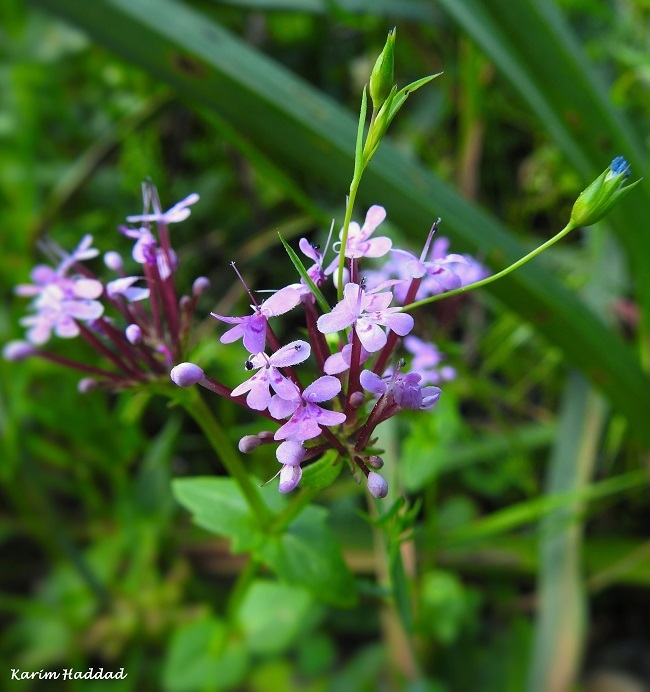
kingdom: Plantae
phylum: Tracheophyta
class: Magnoliopsida
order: Dipsacales
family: Caprifoliaceae
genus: Fedia
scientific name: Fedia graciliflora
